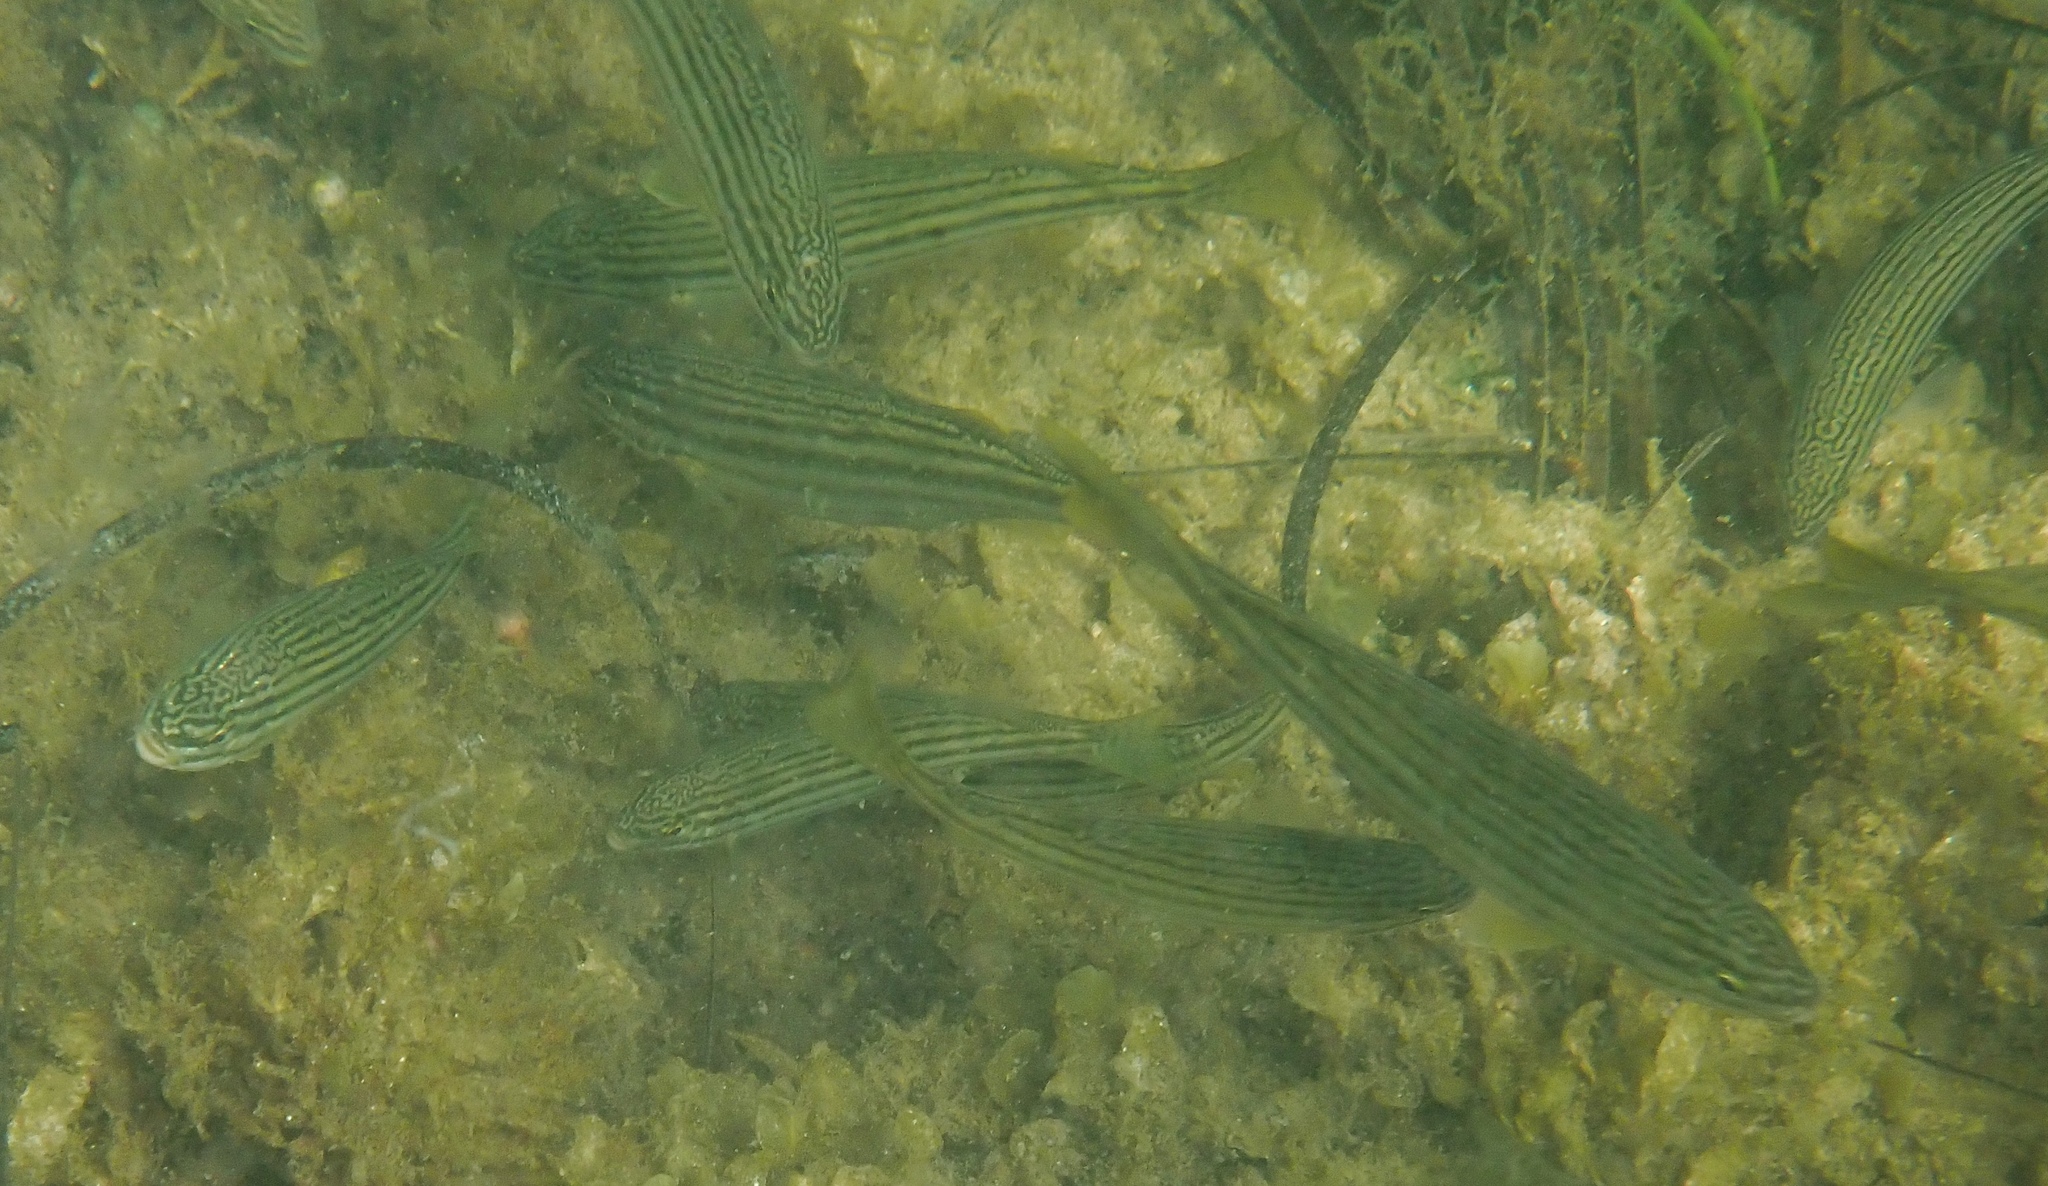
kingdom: Animalia
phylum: Chordata
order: Perciformes
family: Terapontidae
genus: Pelates
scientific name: Pelates octolineatus
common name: Eight-lined trumpeter
